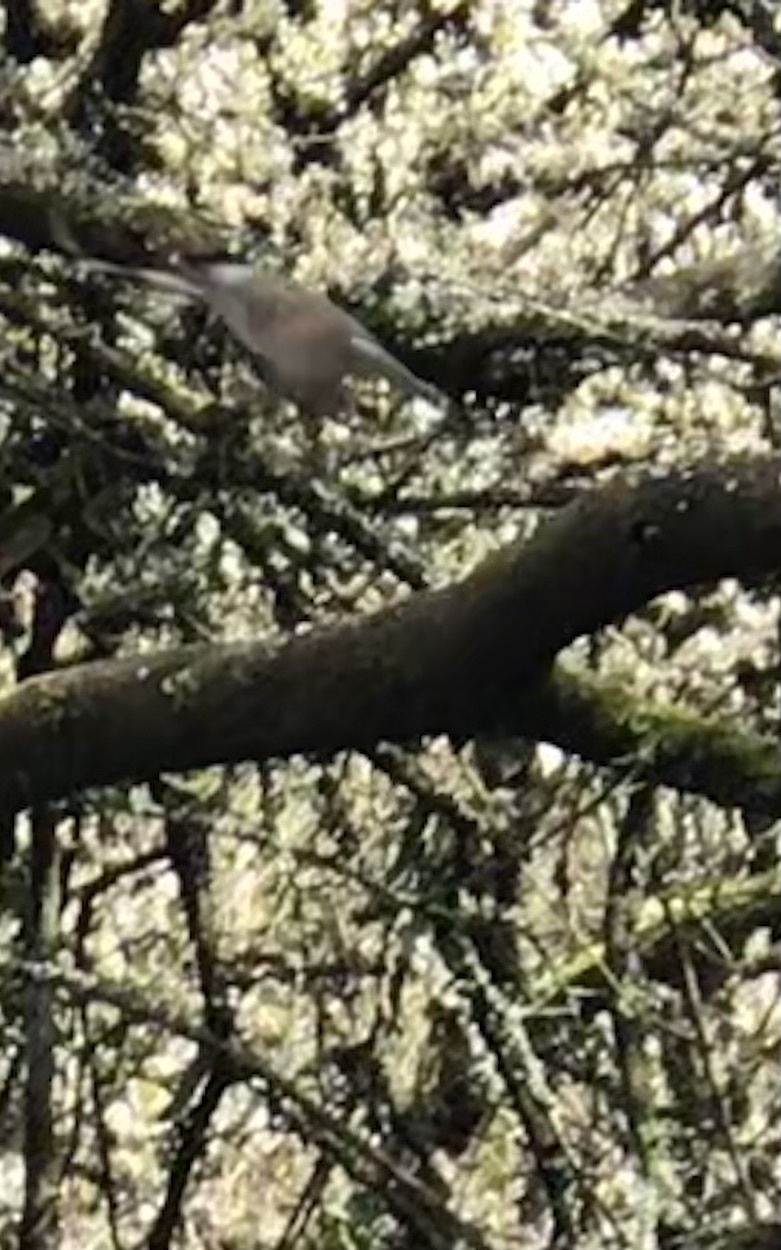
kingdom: Animalia
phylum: Chordata
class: Aves
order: Passeriformes
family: Sylviidae
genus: Sylvia
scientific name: Sylvia atricapilla
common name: Eurasian blackcap
